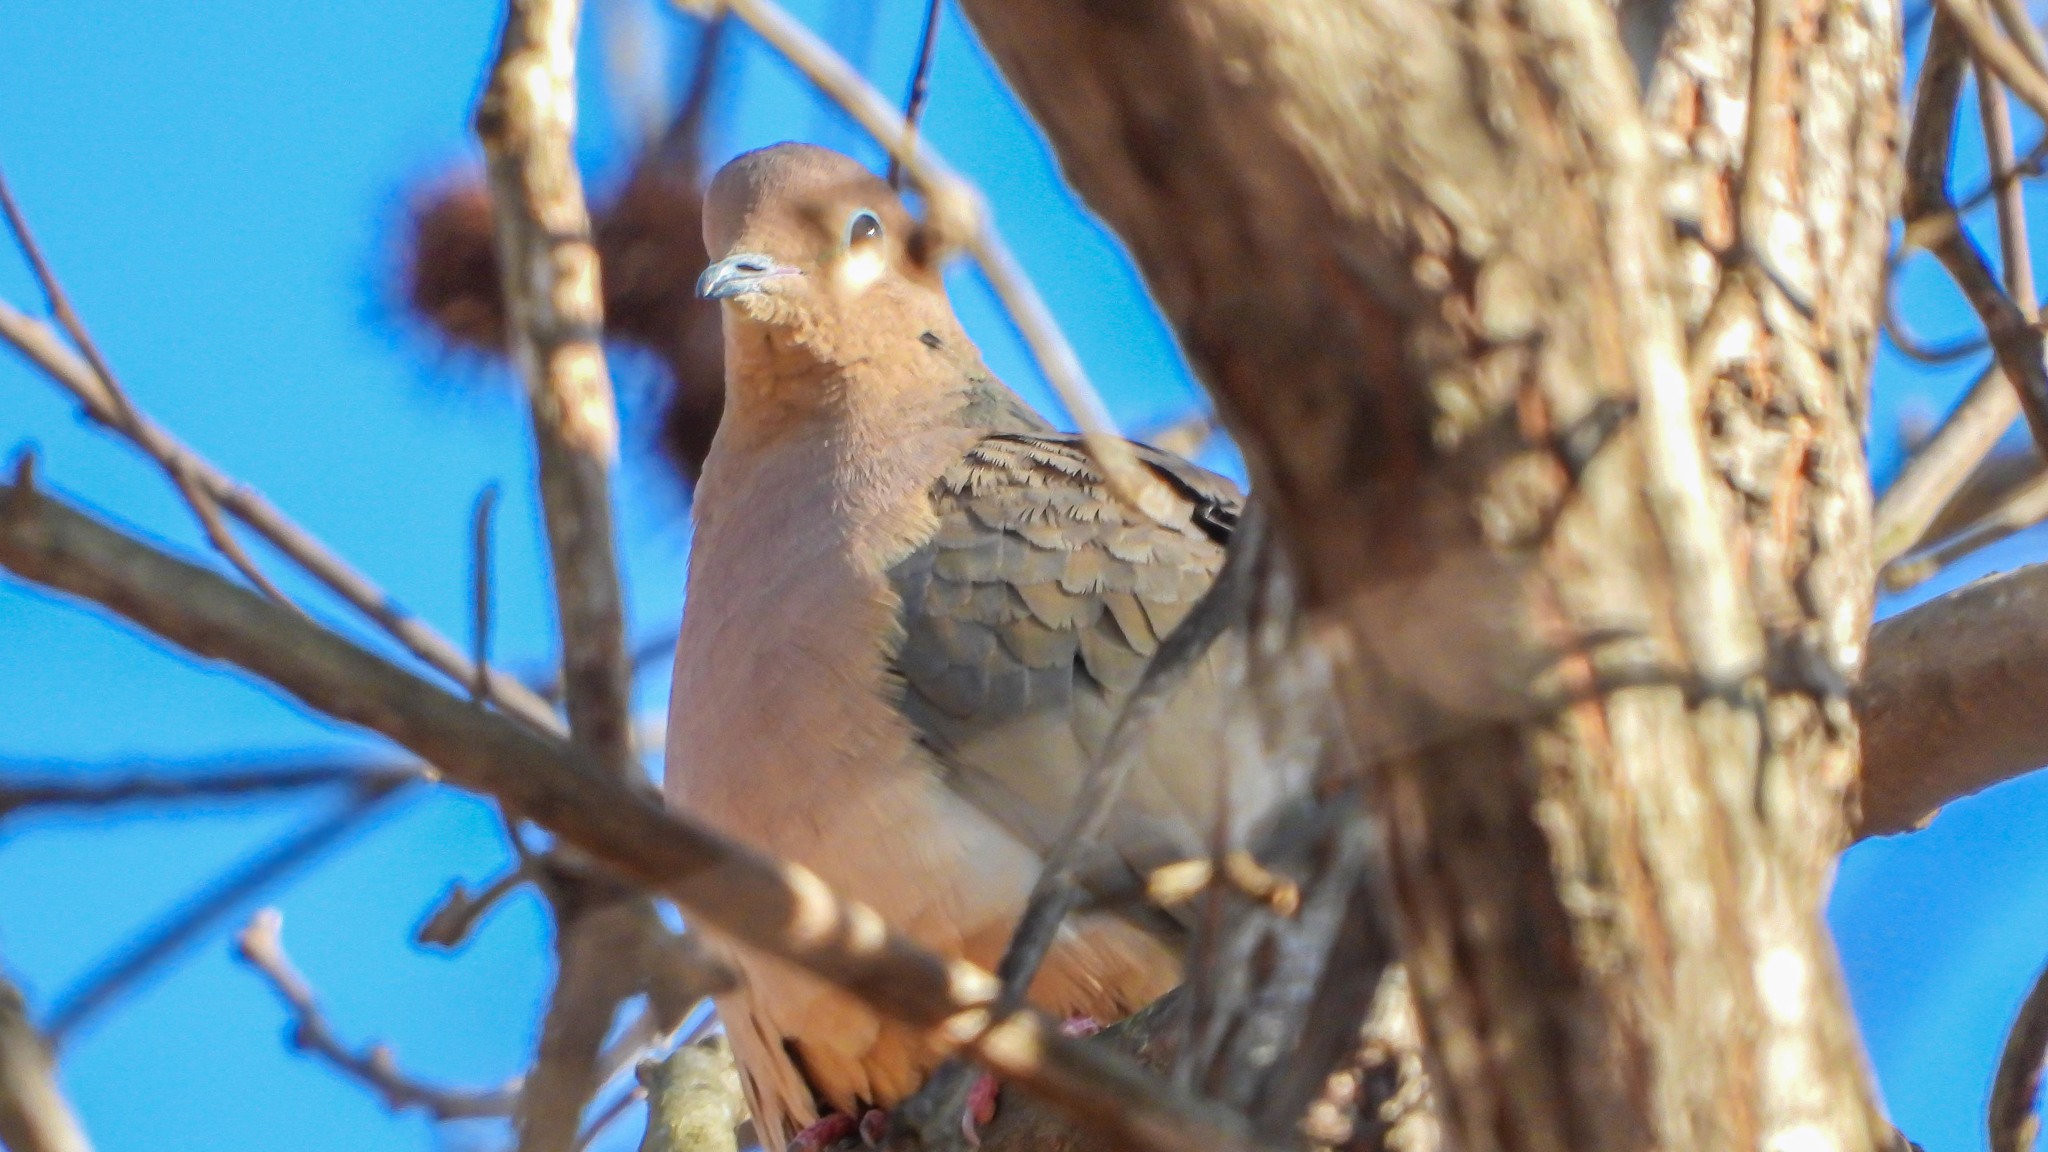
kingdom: Animalia
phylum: Chordata
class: Aves
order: Columbiformes
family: Columbidae
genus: Zenaida
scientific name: Zenaida macroura
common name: Mourning dove
